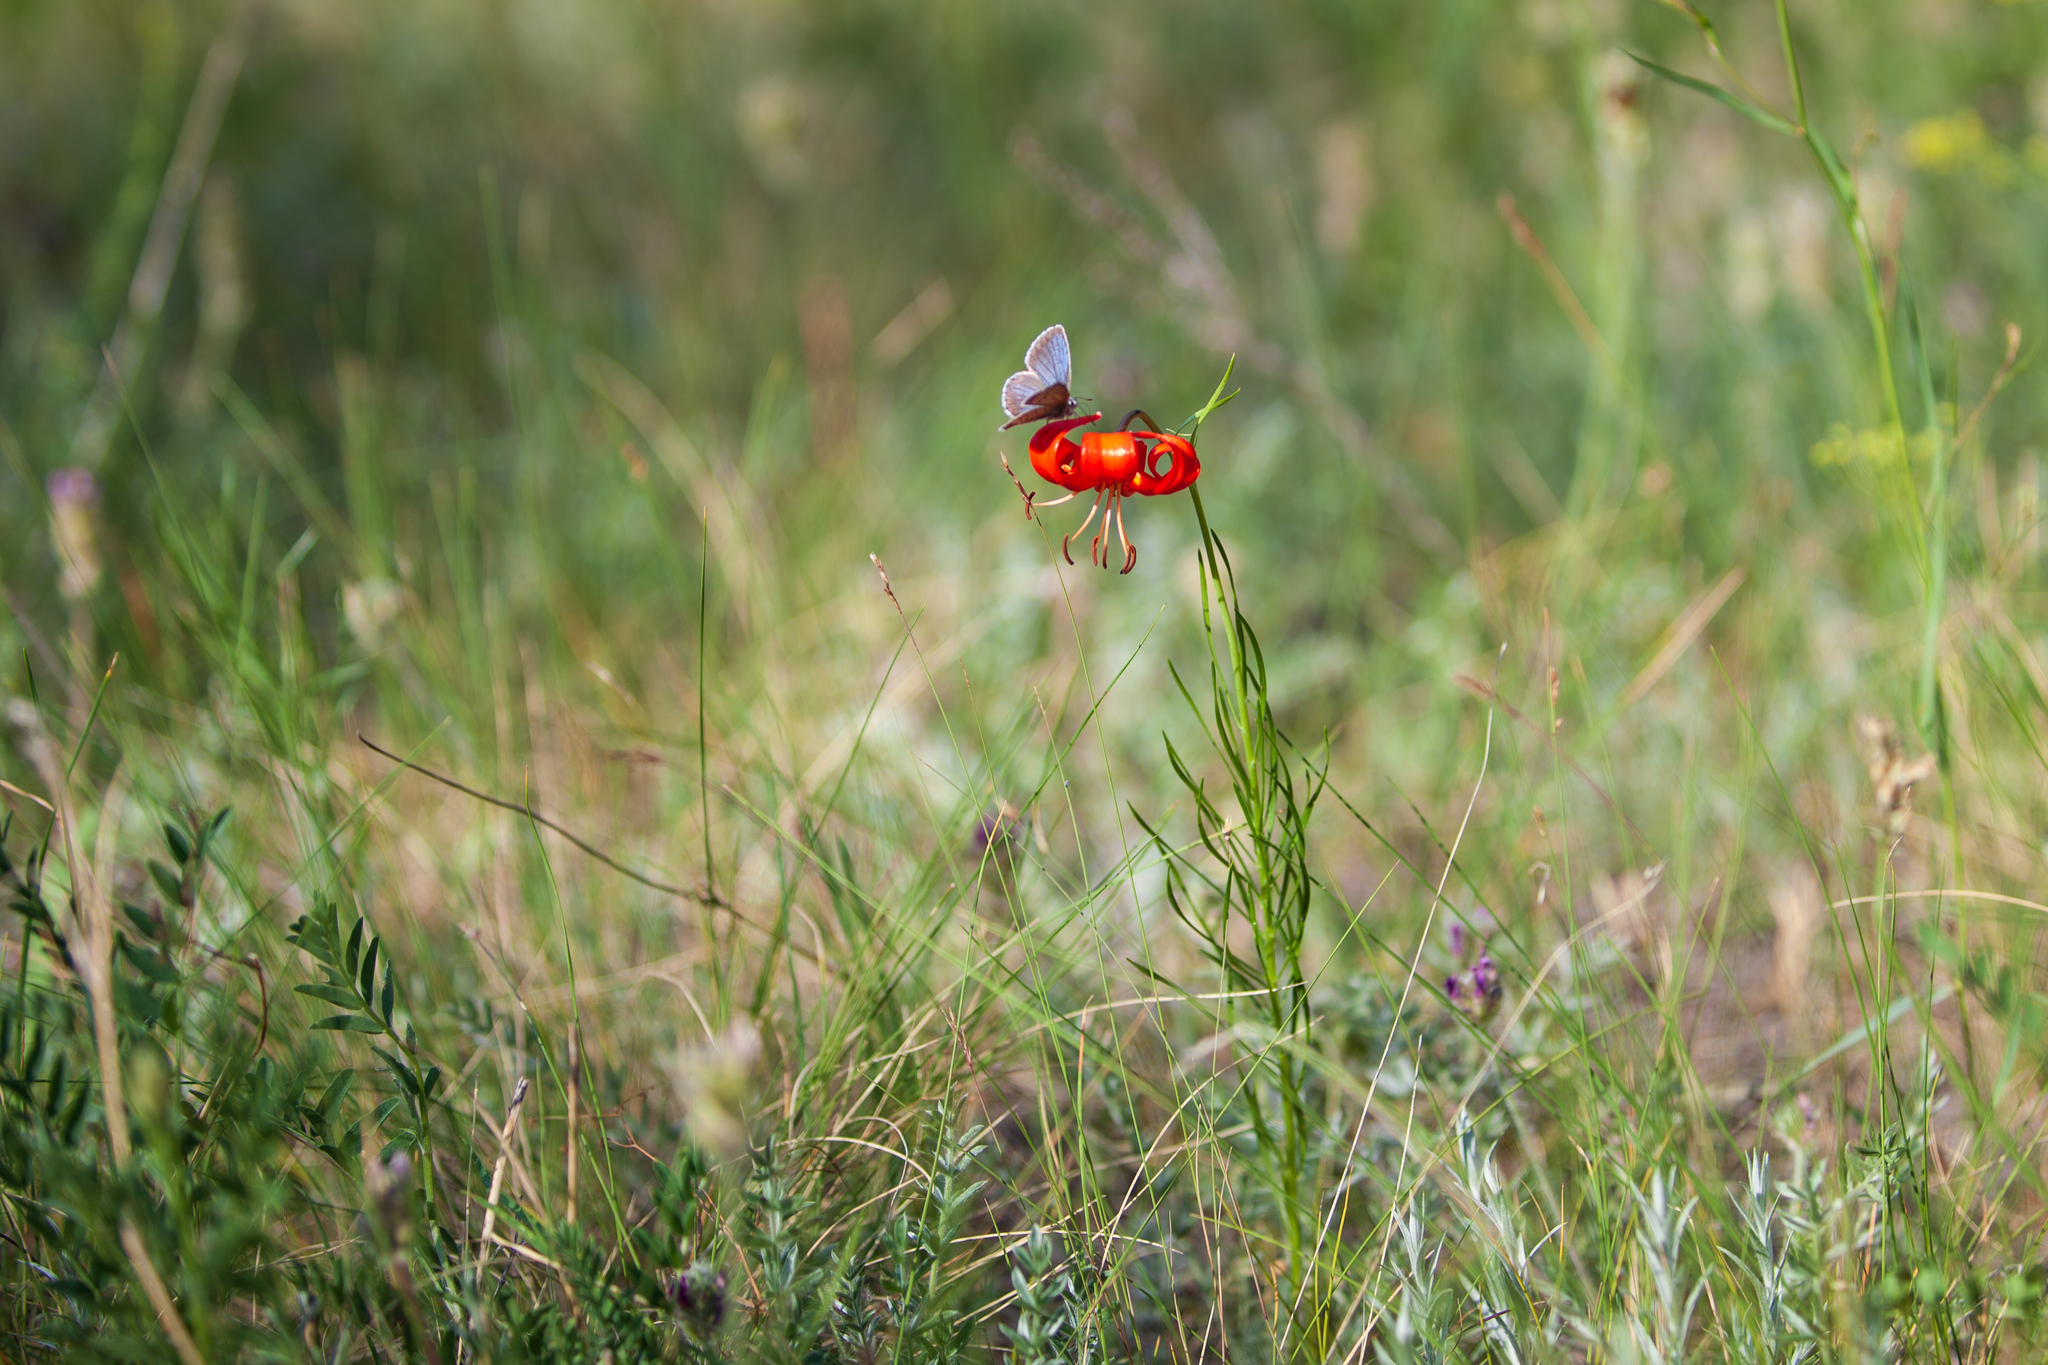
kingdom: Plantae
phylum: Tracheophyta
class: Liliopsida
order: Liliales
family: Liliaceae
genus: Lilium
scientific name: Lilium pumilum
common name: Coral lily
